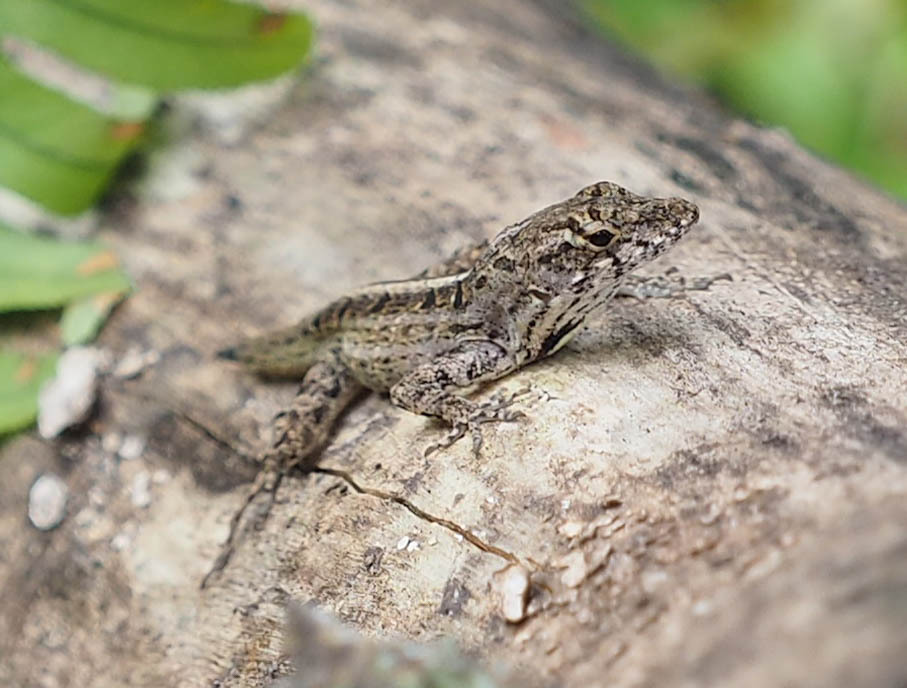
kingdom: Animalia
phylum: Chordata
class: Squamata
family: Dactyloidae
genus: Anolis
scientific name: Anolis sagrei
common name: Brown anole
